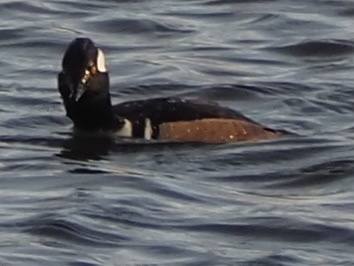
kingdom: Animalia
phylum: Chordata
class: Aves
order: Anseriformes
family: Anatidae
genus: Lophodytes
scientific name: Lophodytes cucullatus
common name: Hooded merganser
